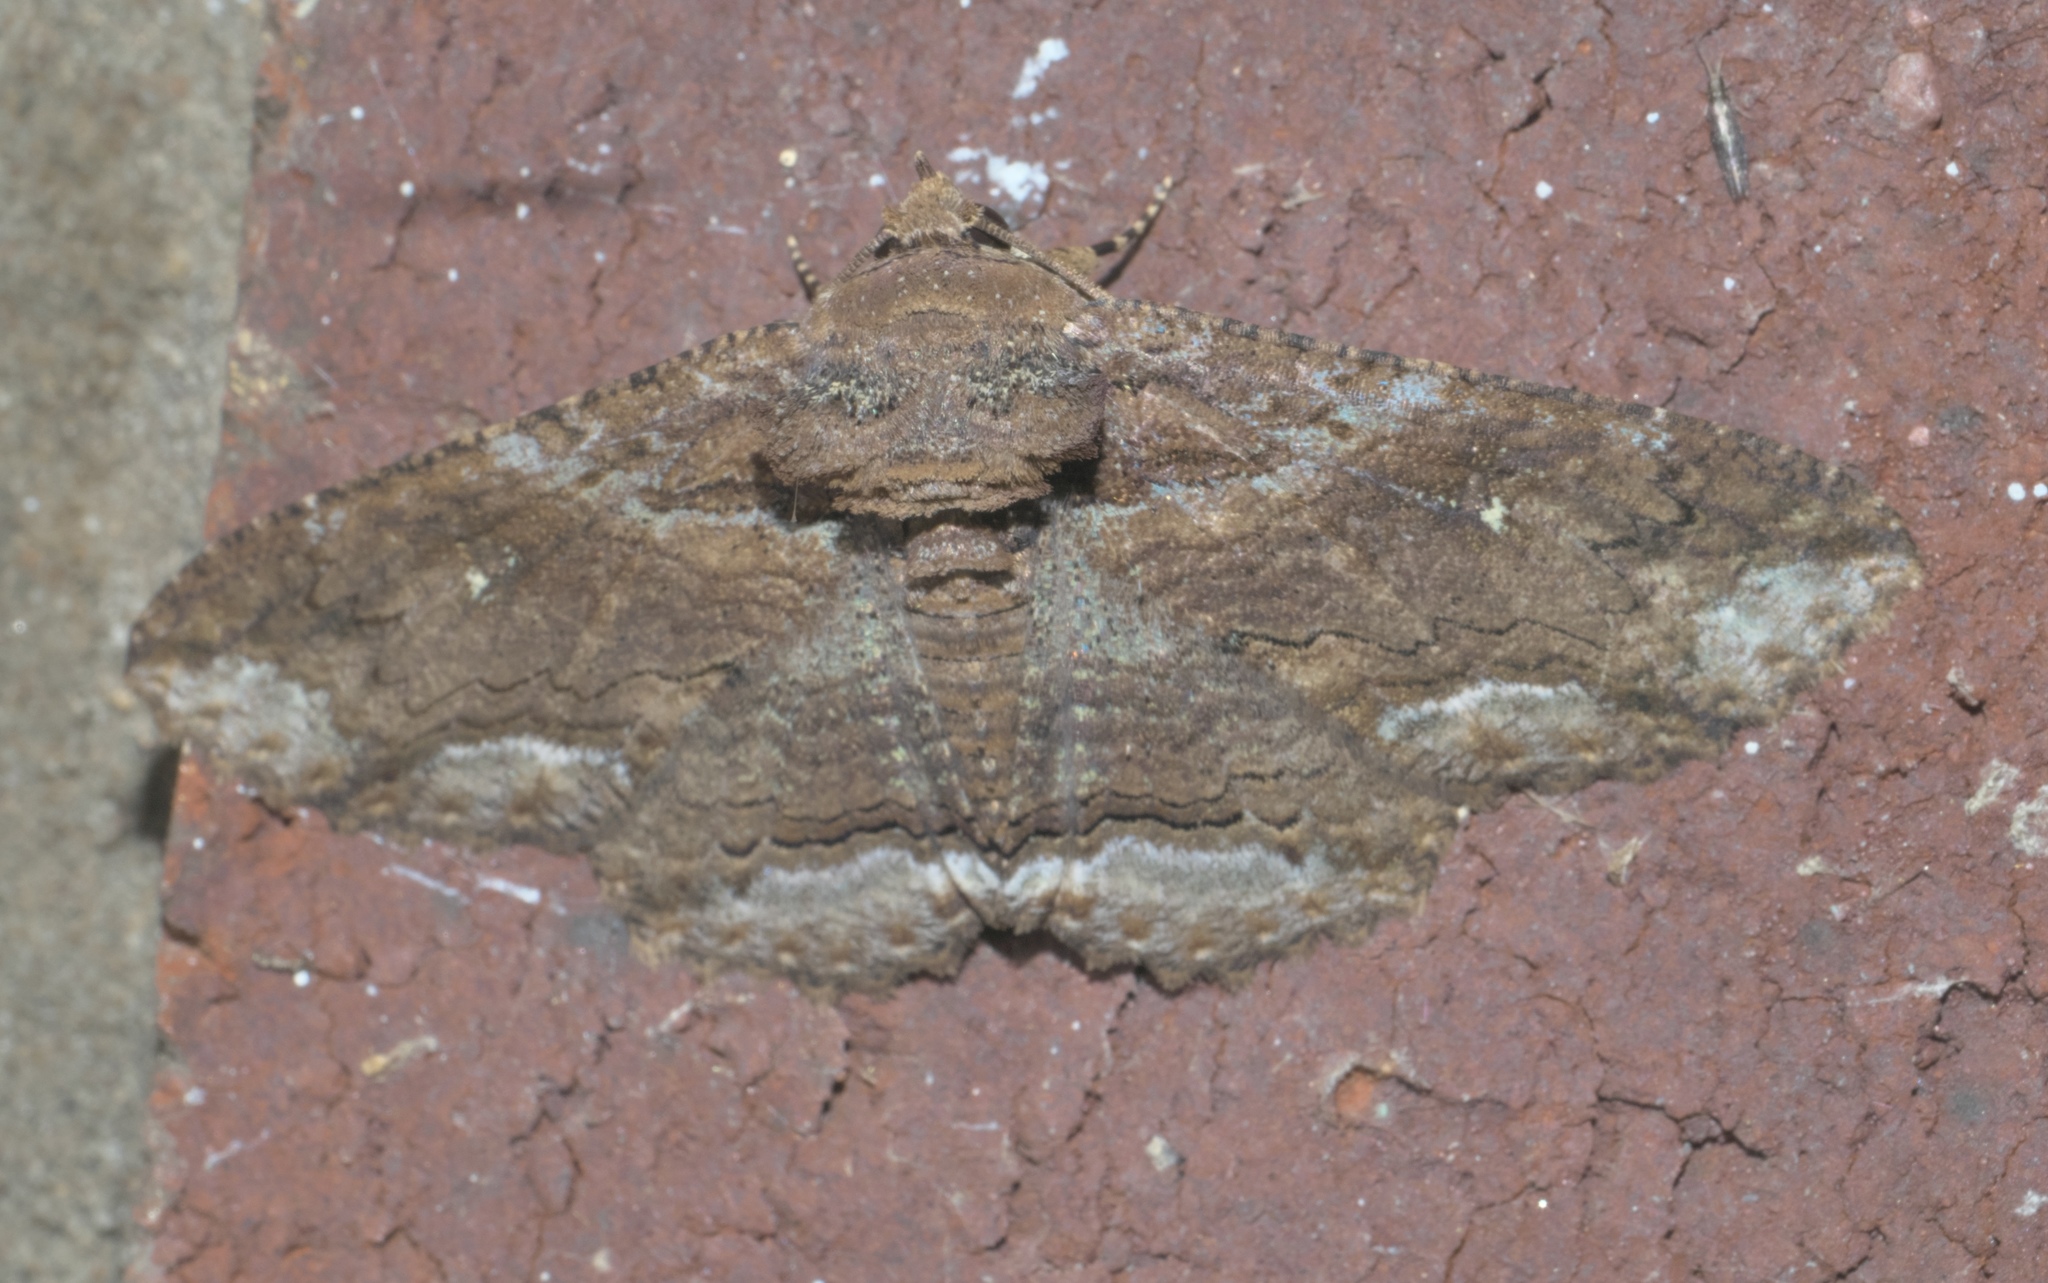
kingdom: Animalia
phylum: Arthropoda
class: Insecta
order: Lepidoptera
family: Erebidae
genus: Zale
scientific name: Zale lunata
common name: Lunate zale moth
